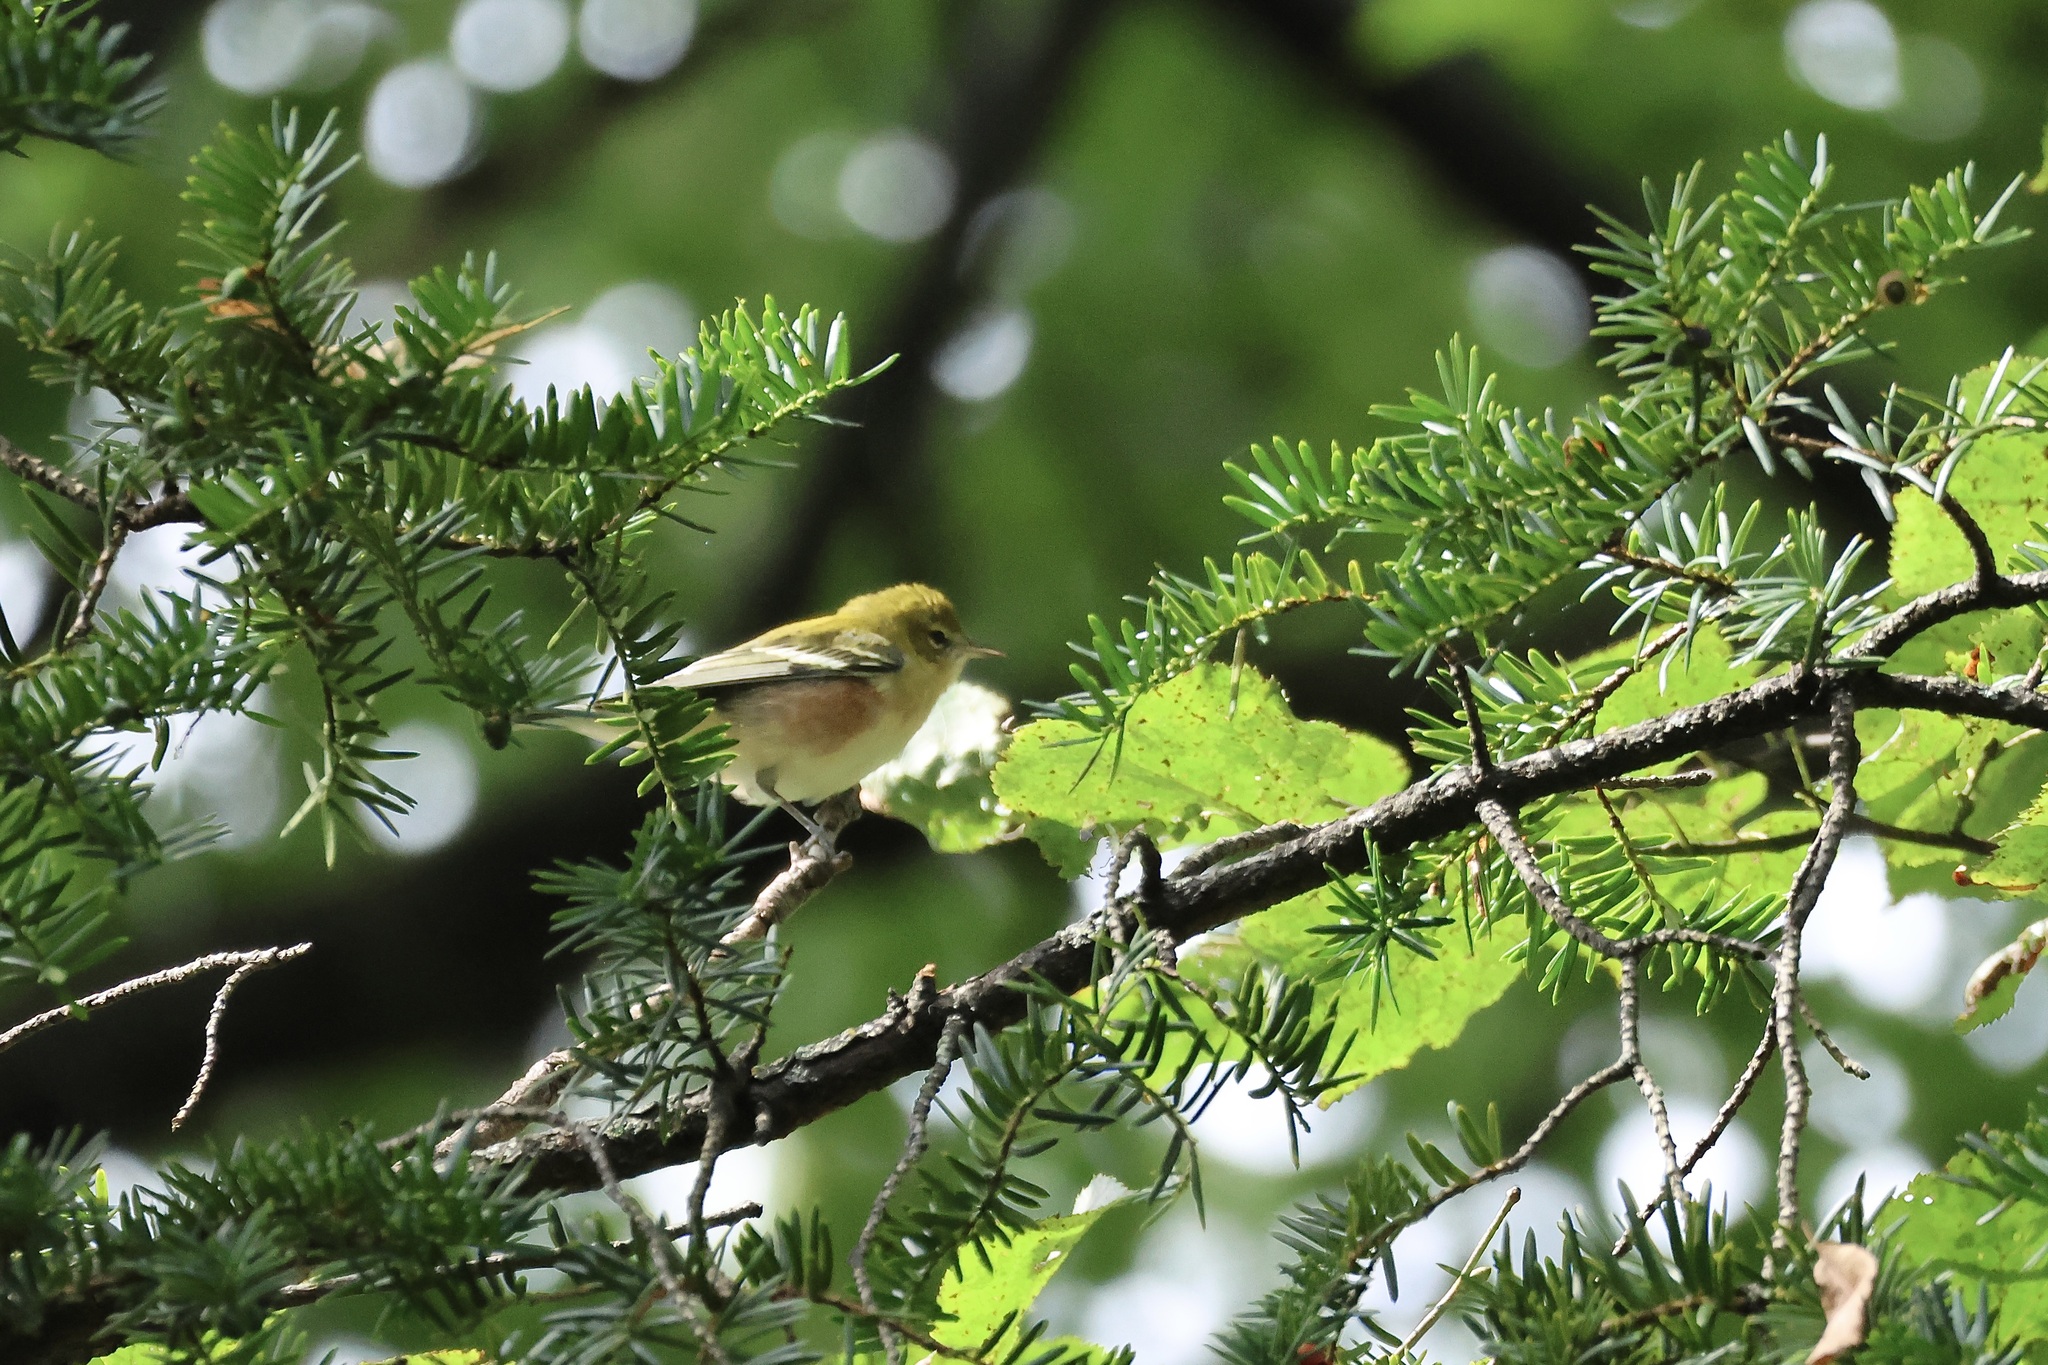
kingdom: Animalia
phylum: Chordata
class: Aves
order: Passeriformes
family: Parulidae
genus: Setophaga
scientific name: Setophaga castanea
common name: Bay-breasted warbler
